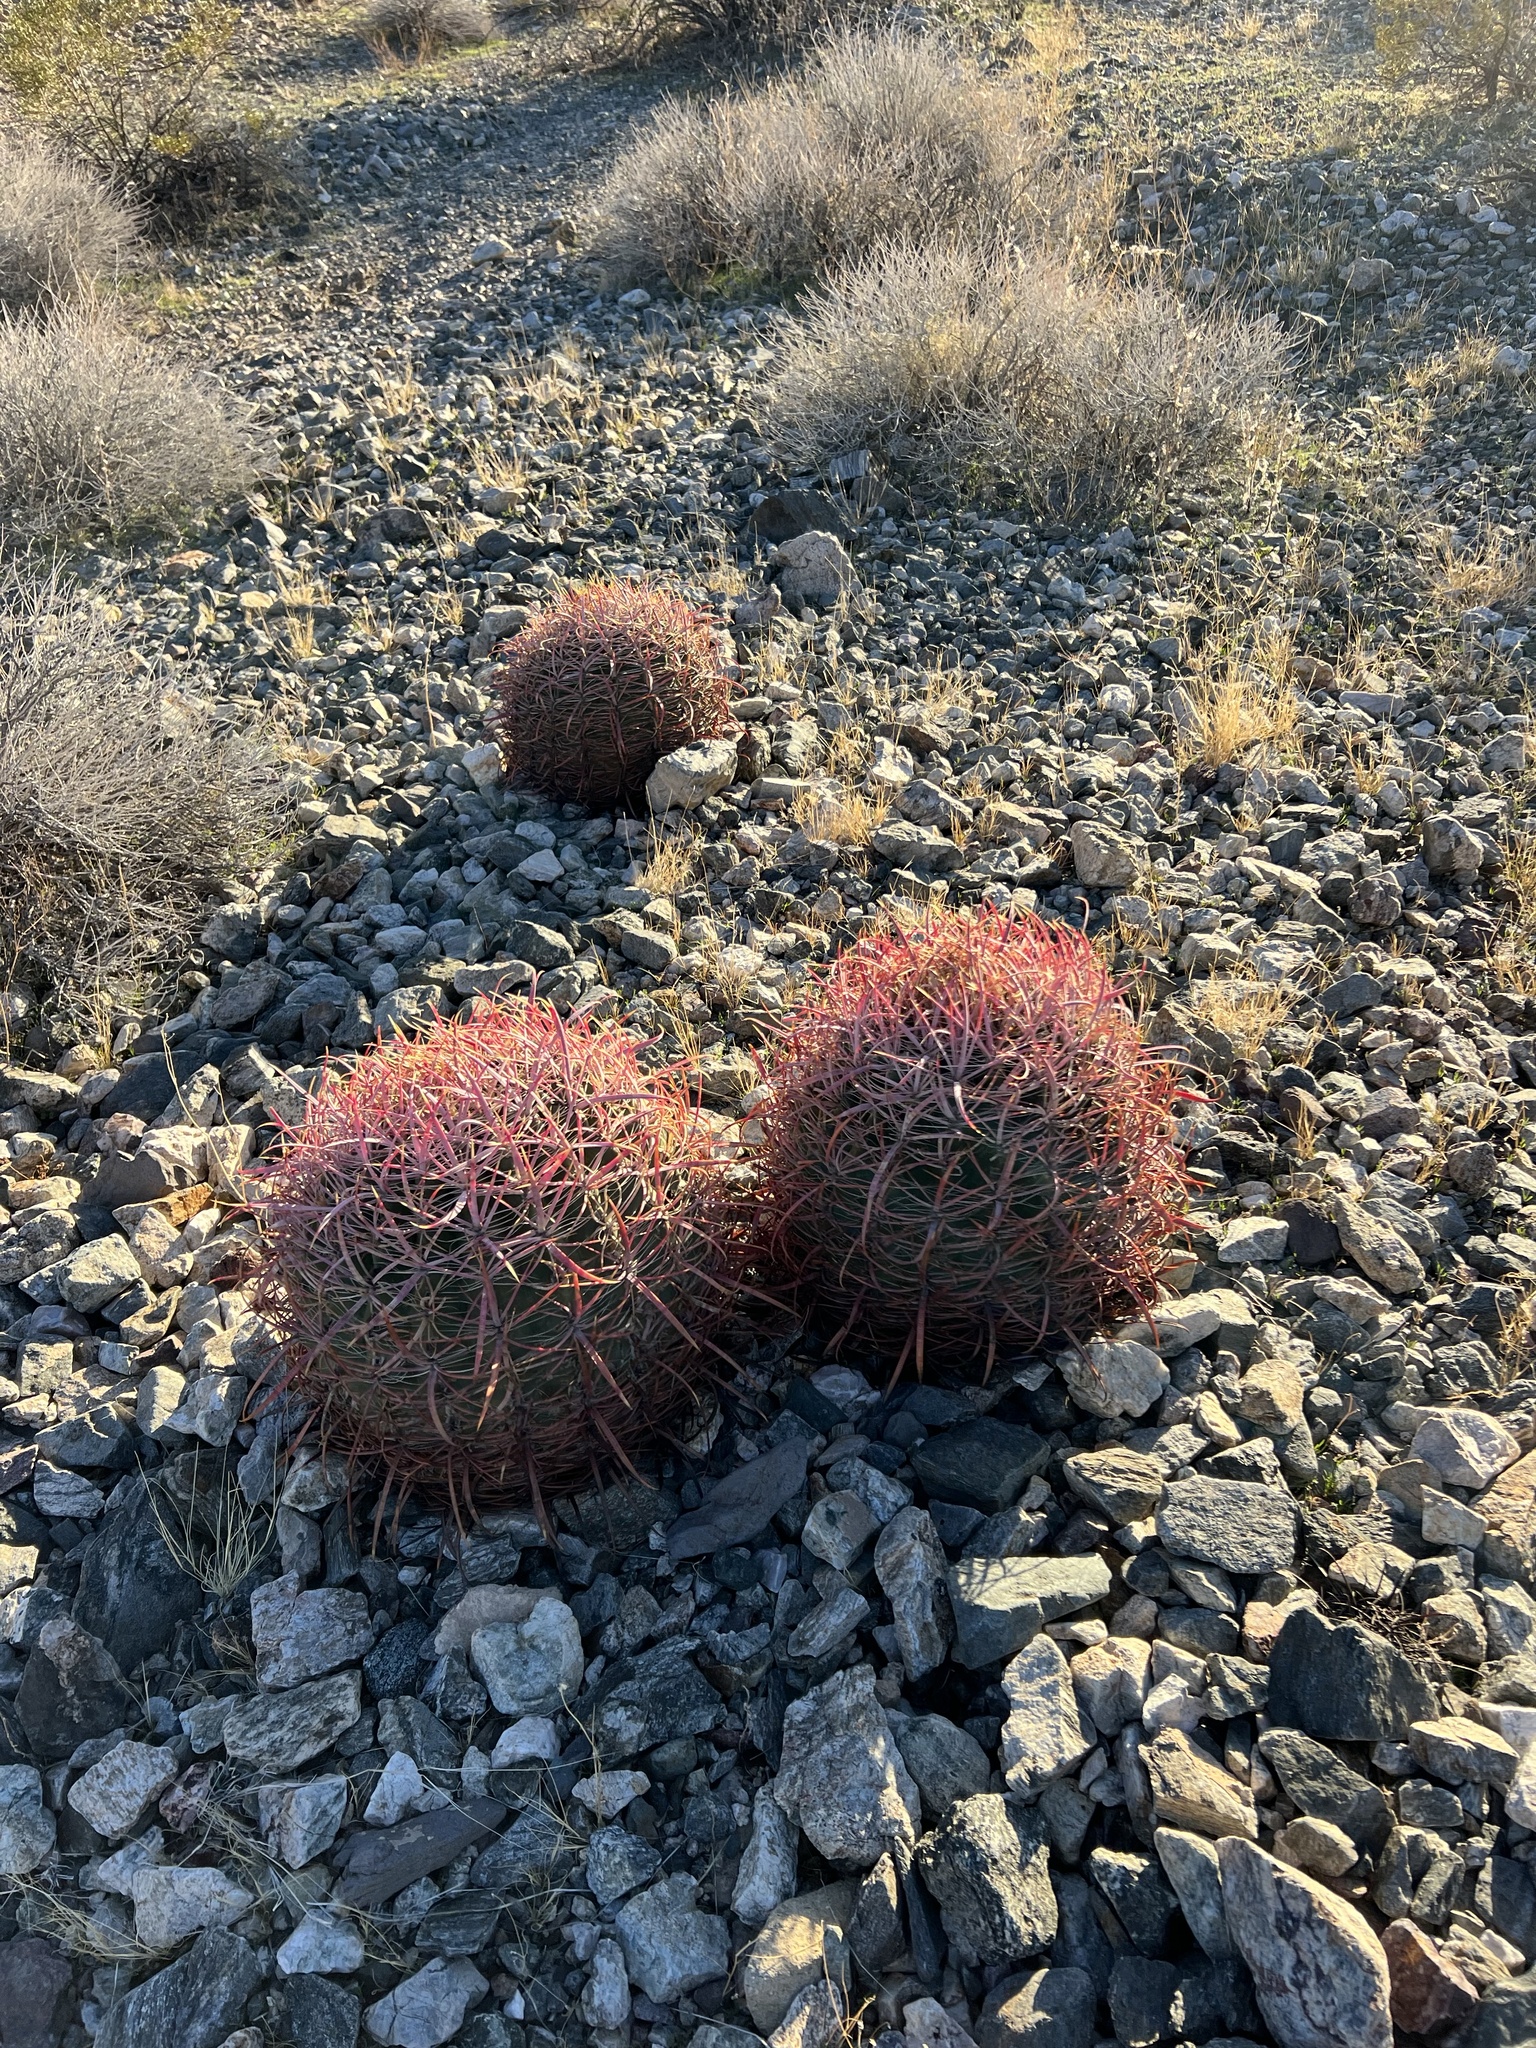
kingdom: Plantae
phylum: Tracheophyta
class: Magnoliopsida
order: Caryophyllales
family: Cactaceae
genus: Ferocactus
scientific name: Ferocactus cylindraceus
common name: California barrel cactus
